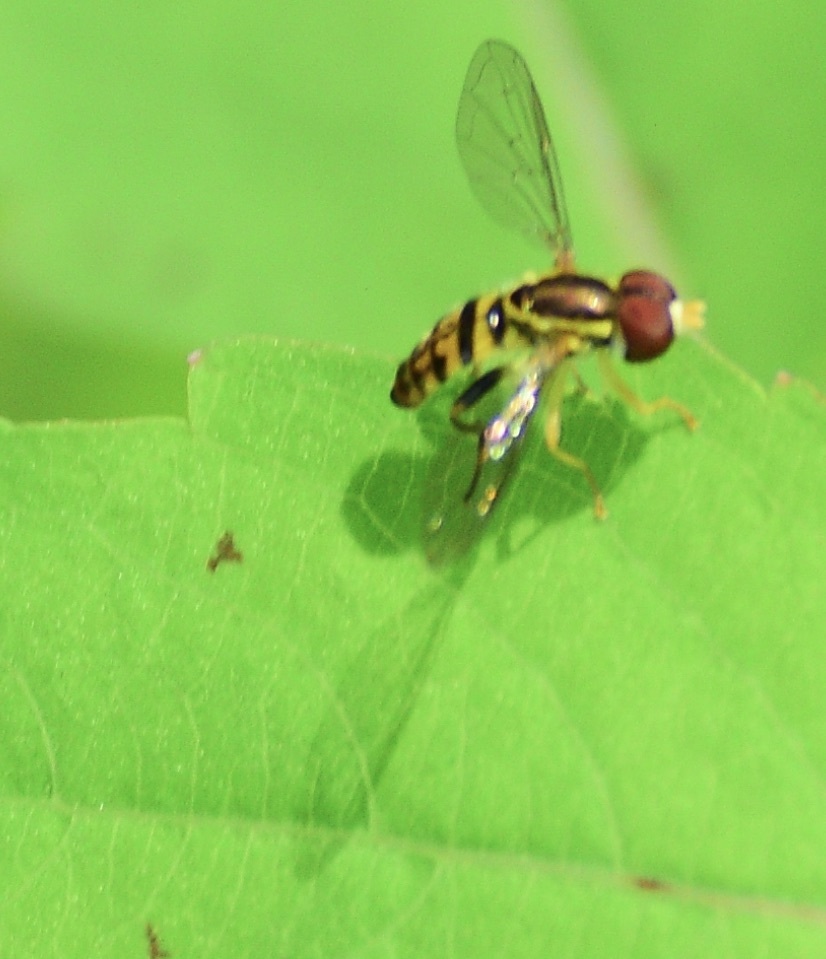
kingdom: Animalia
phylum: Arthropoda
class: Insecta
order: Diptera
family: Syrphidae
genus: Toxomerus
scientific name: Toxomerus geminatus
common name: Eastern calligrapher
